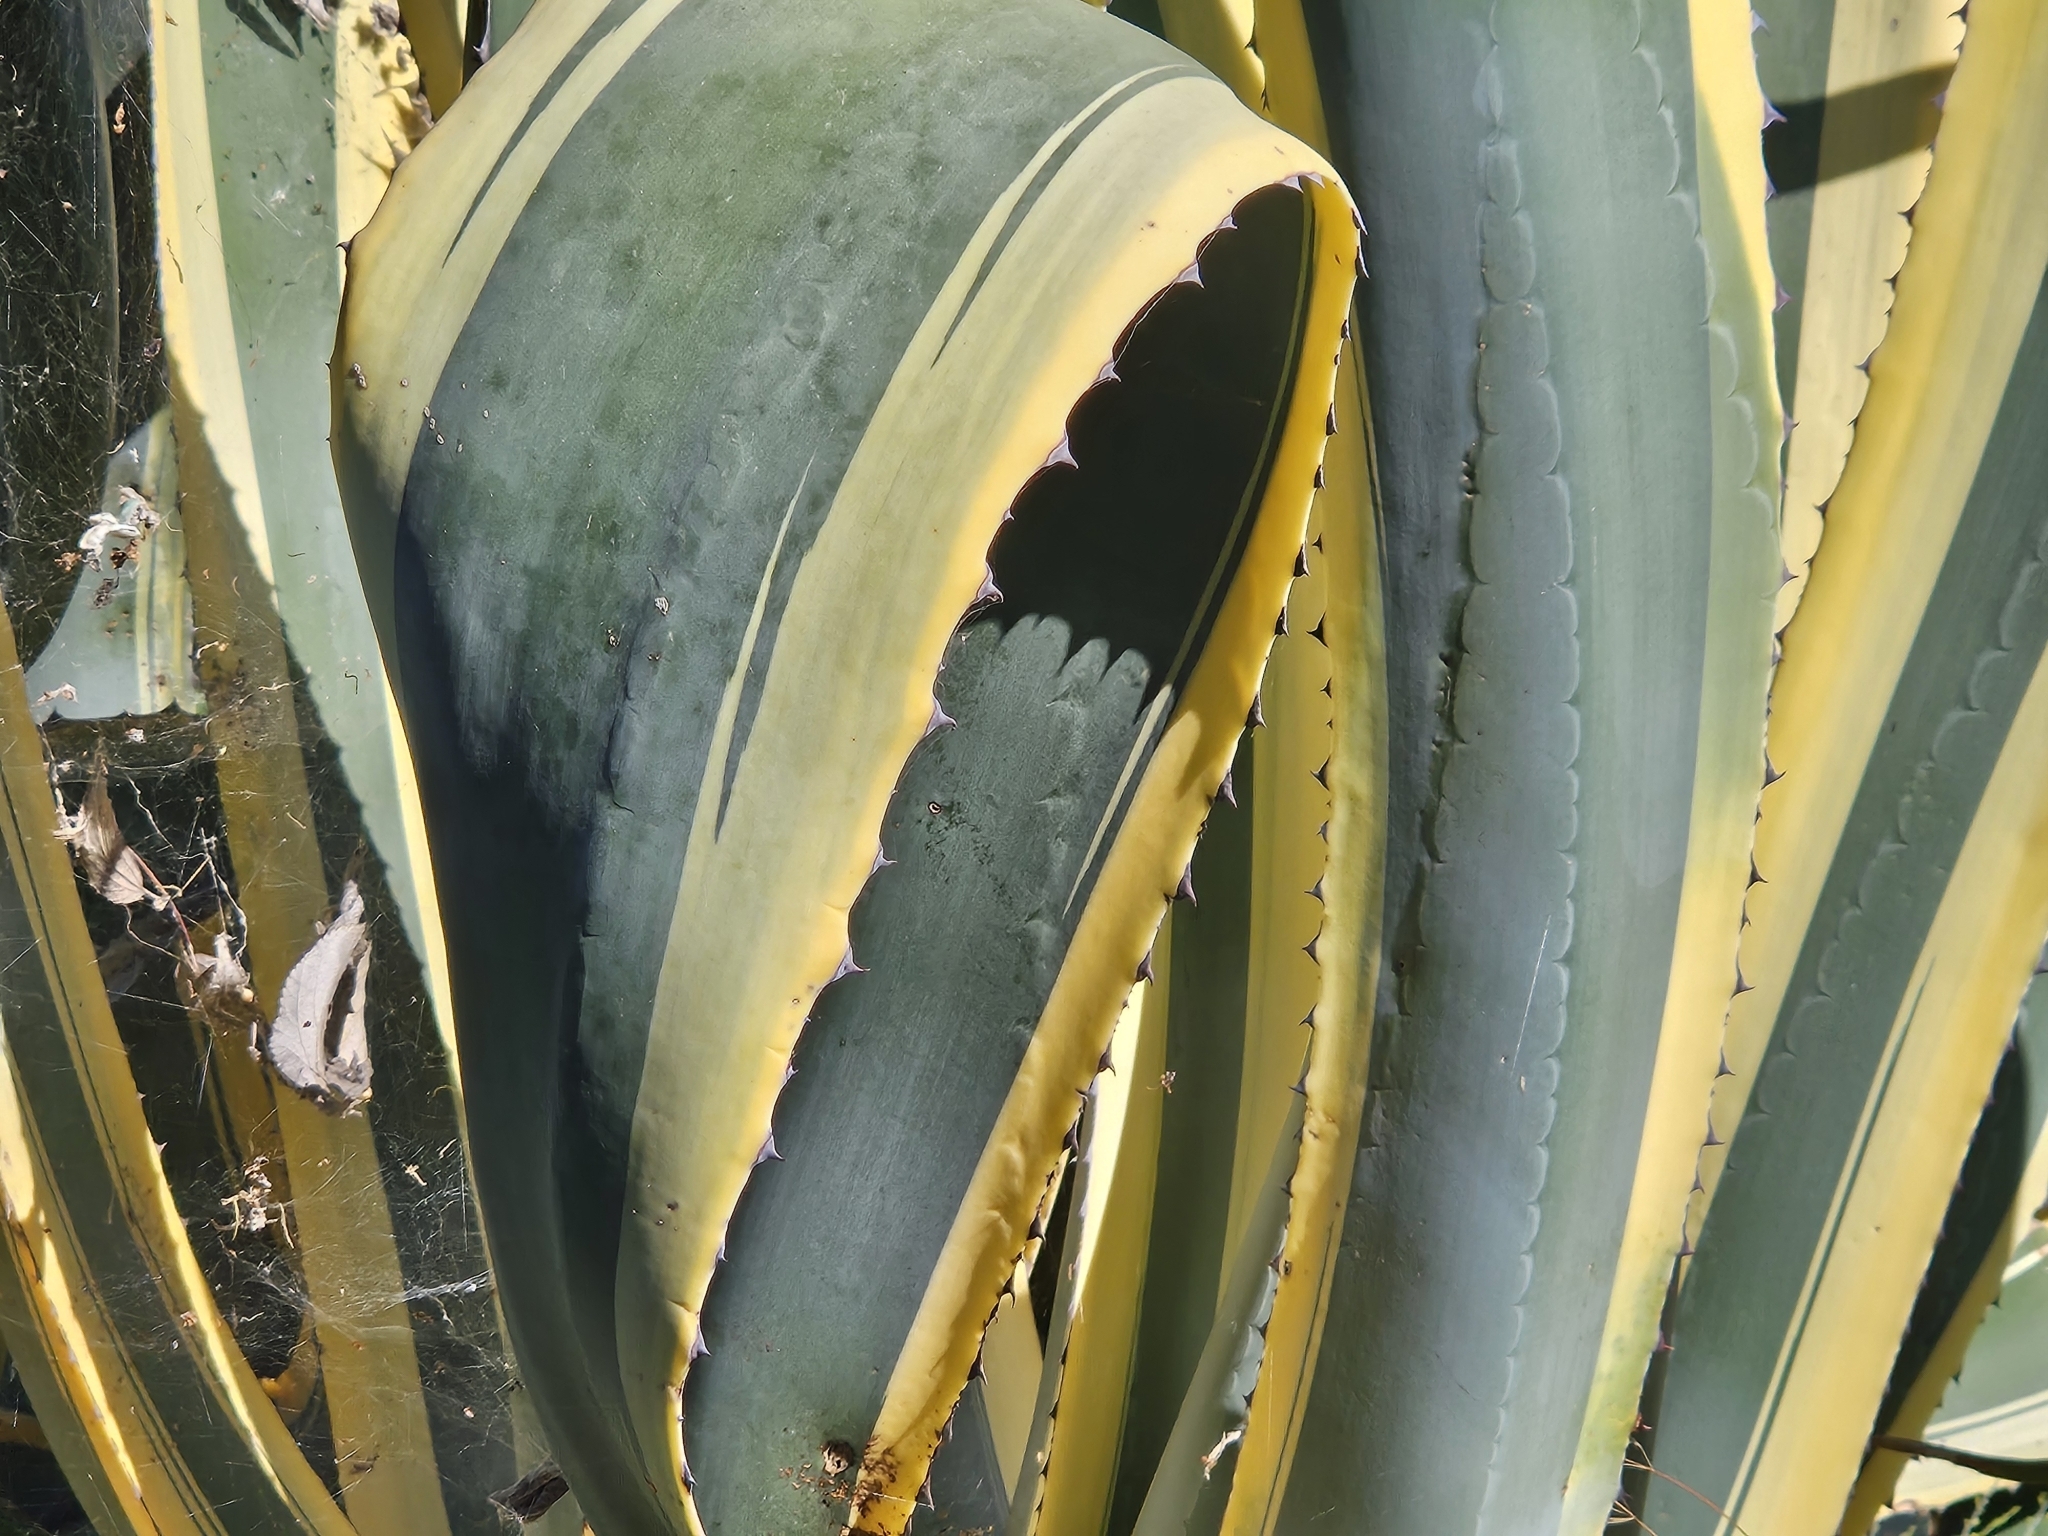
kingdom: Plantae
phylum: Tracheophyta
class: Liliopsida
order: Asparagales
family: Asparagaceae
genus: Agave
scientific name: Agave americana
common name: Centuryplant
